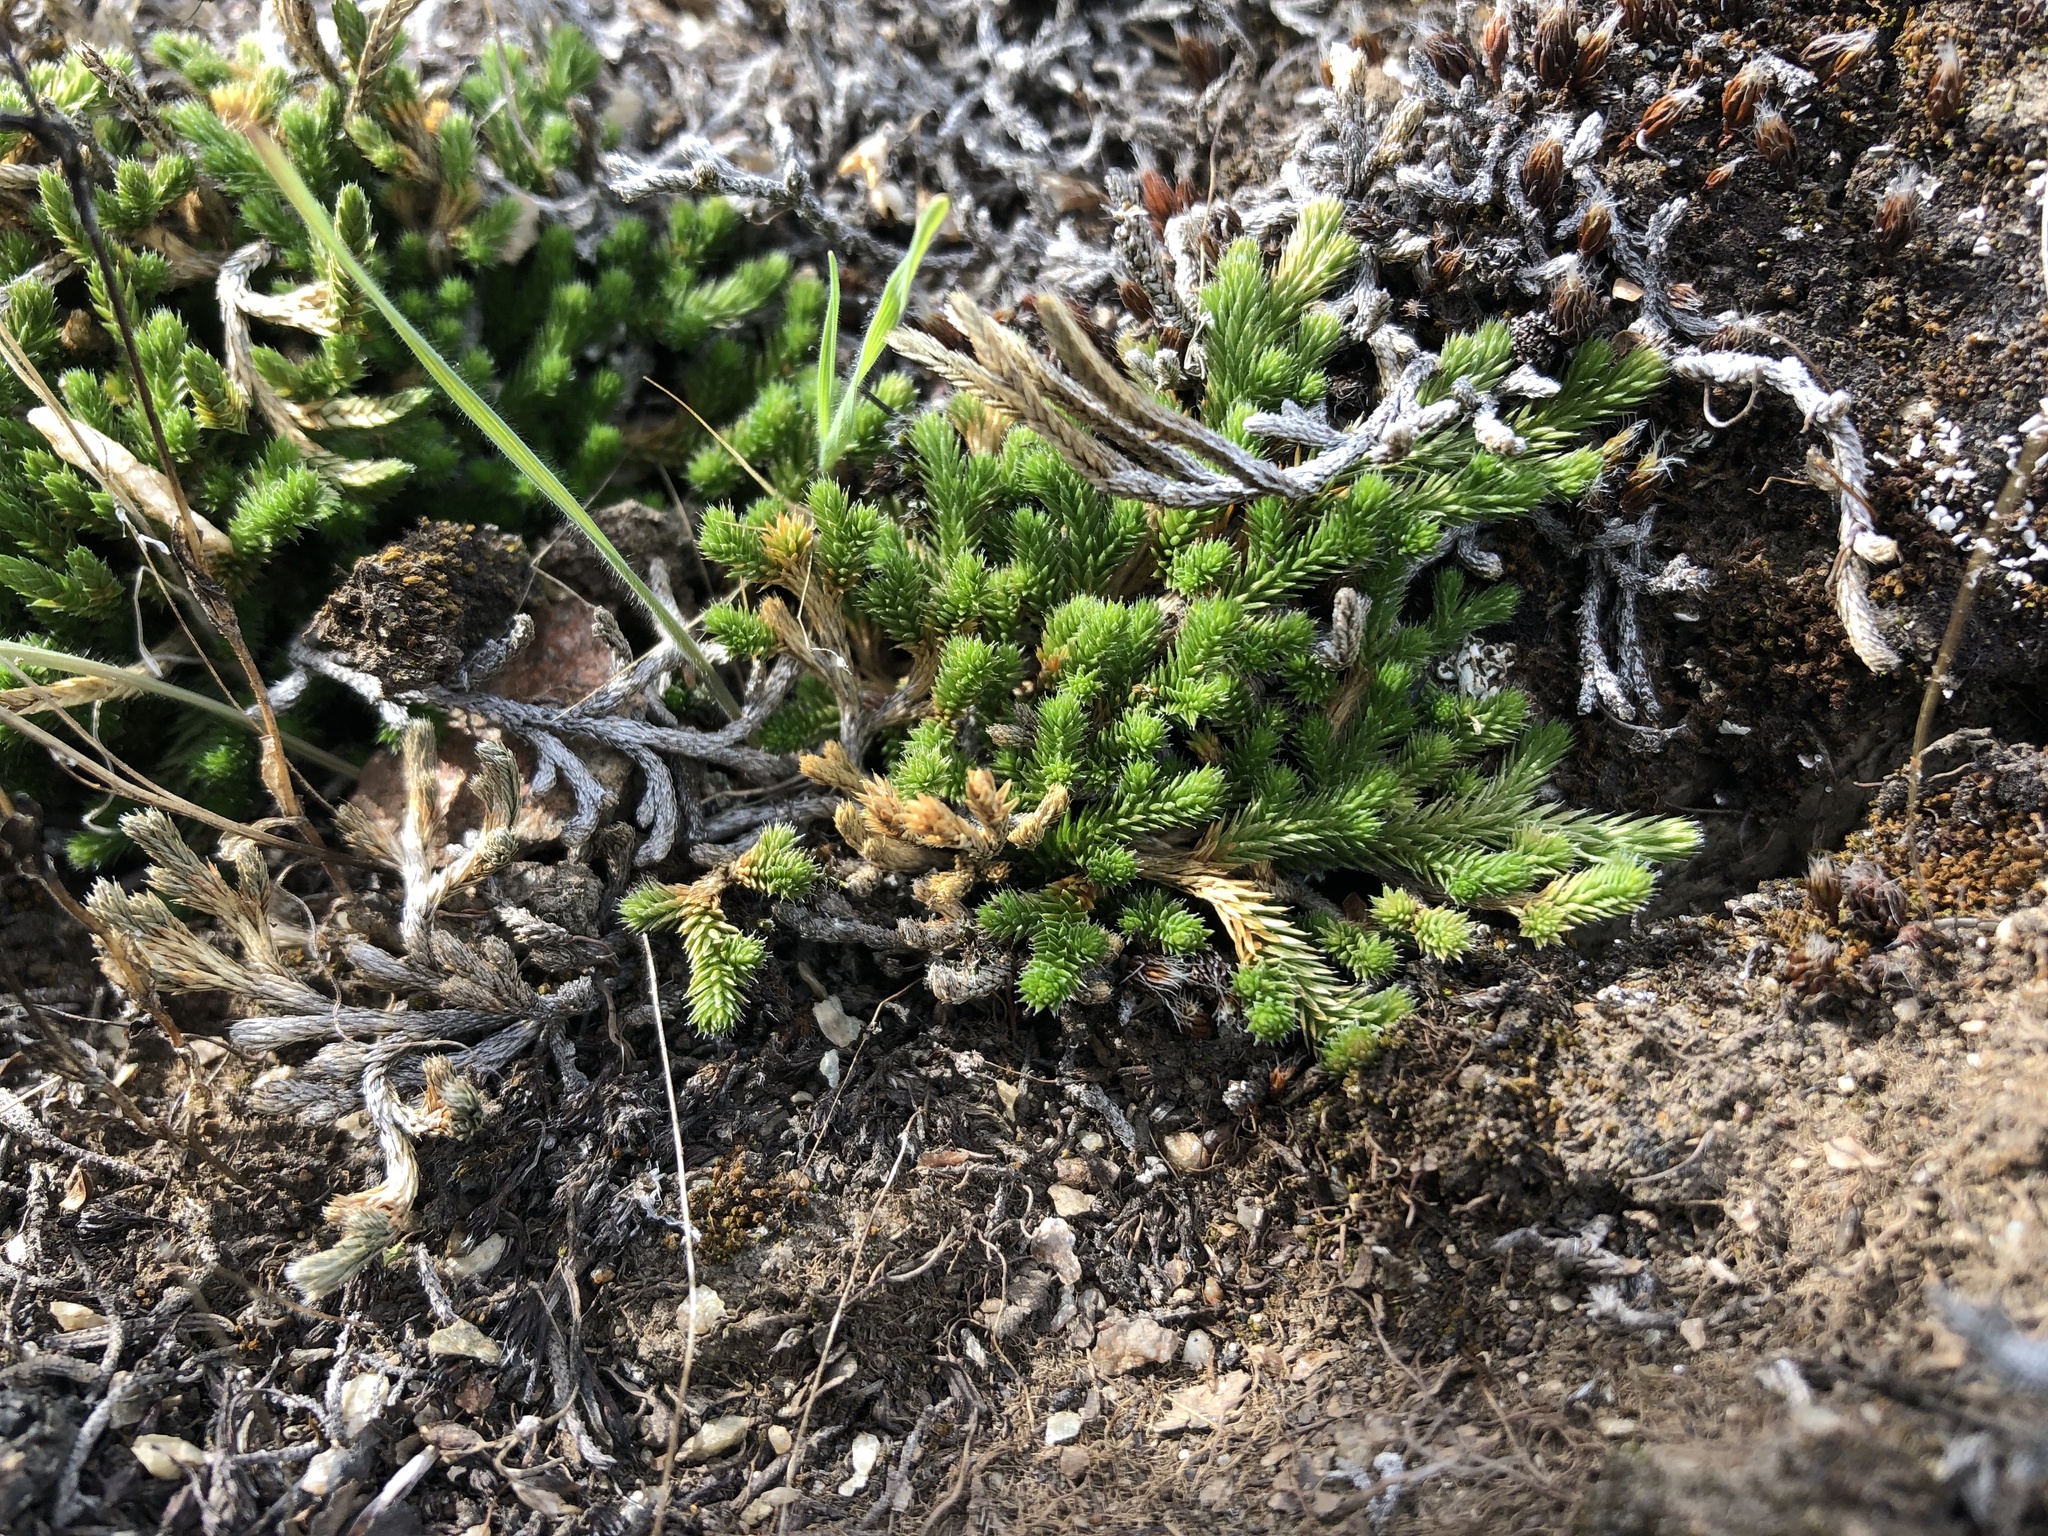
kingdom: Plantae
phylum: Tracheophyta
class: Lycopodiopsida
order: Selaginellales
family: Selaginellaceae
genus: Selaginella
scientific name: Selaginella wallacei
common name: Wallace's selaginella
